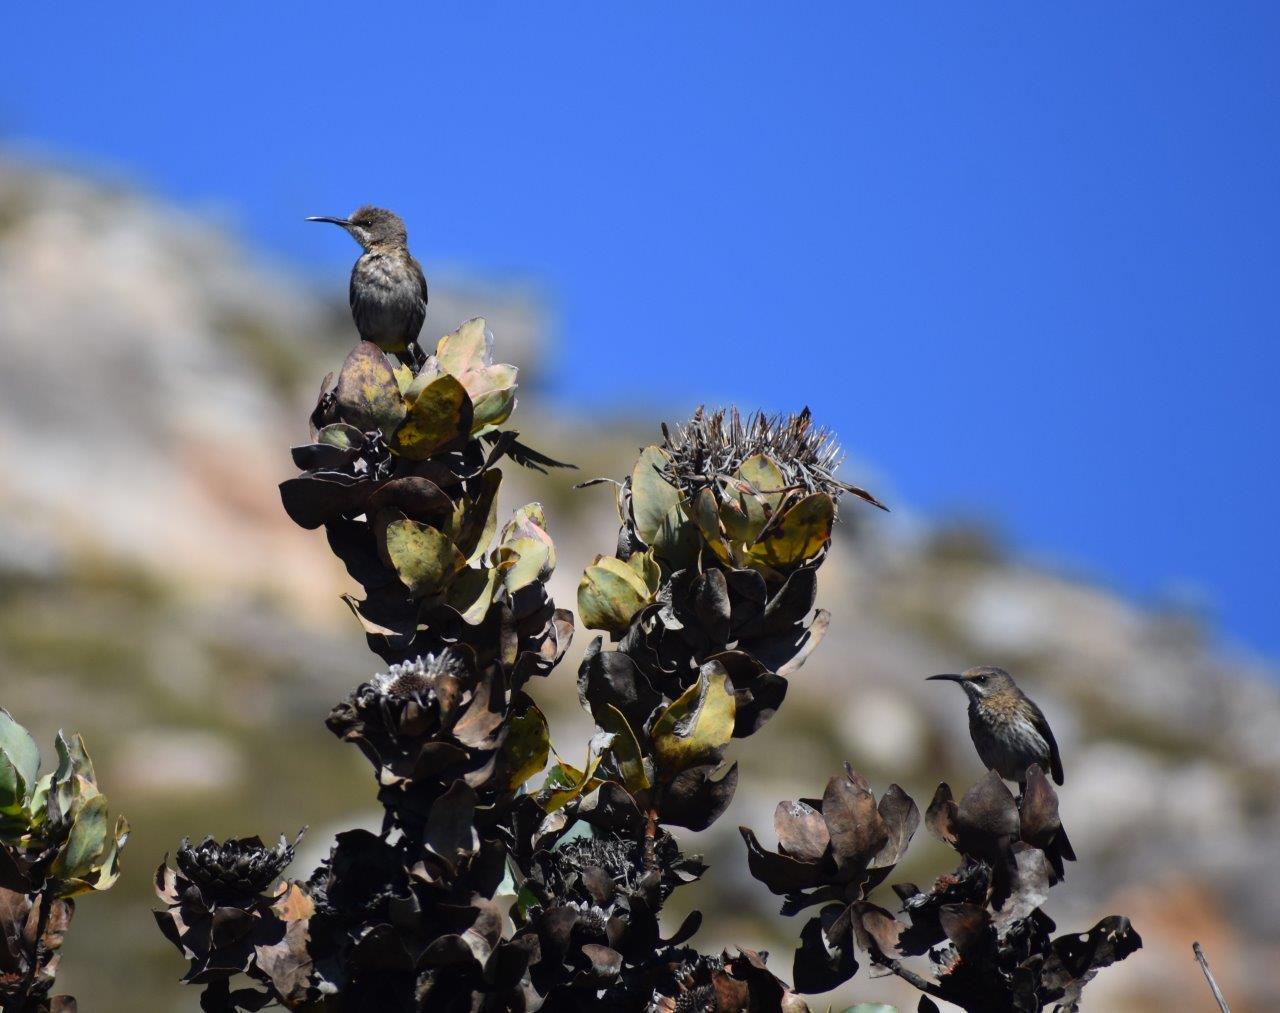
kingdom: Animalia
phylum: Chordata
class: Aves
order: Passeriformes
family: Promeropidae
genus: Promerops
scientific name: Promerops cafer
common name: Cape sugarbird
